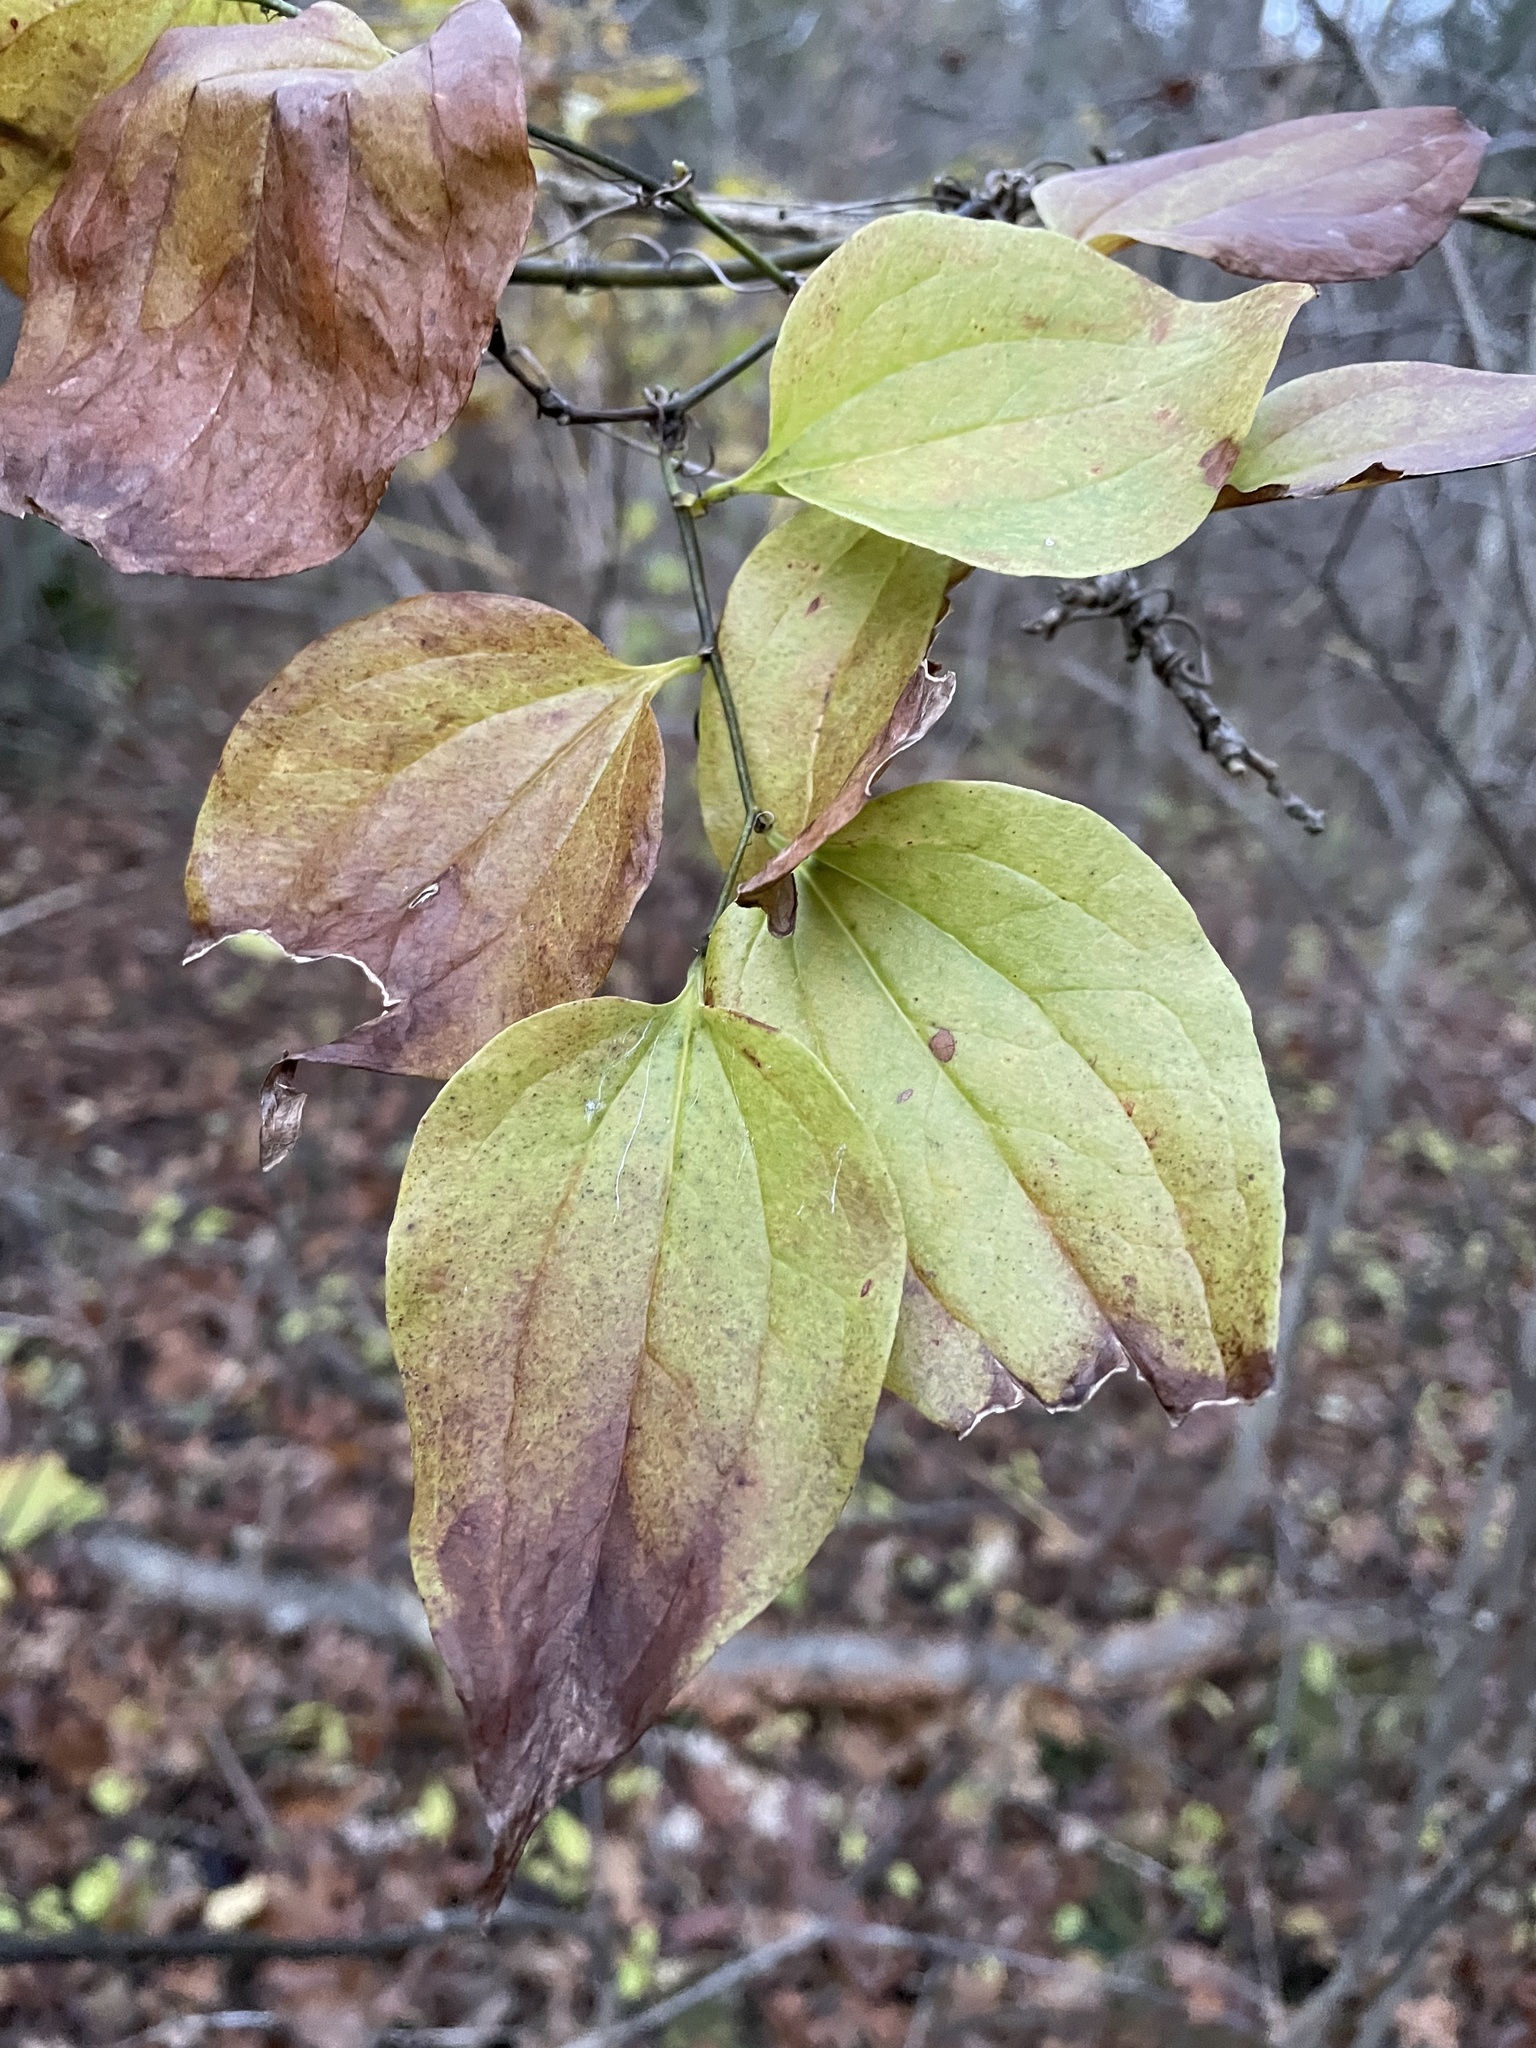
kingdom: Plantae
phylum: Tracheophyta
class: Liliopsida
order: Liliales
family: Smilacaceae
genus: Smilax
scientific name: Smilax tamnoides
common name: Hellfetter
